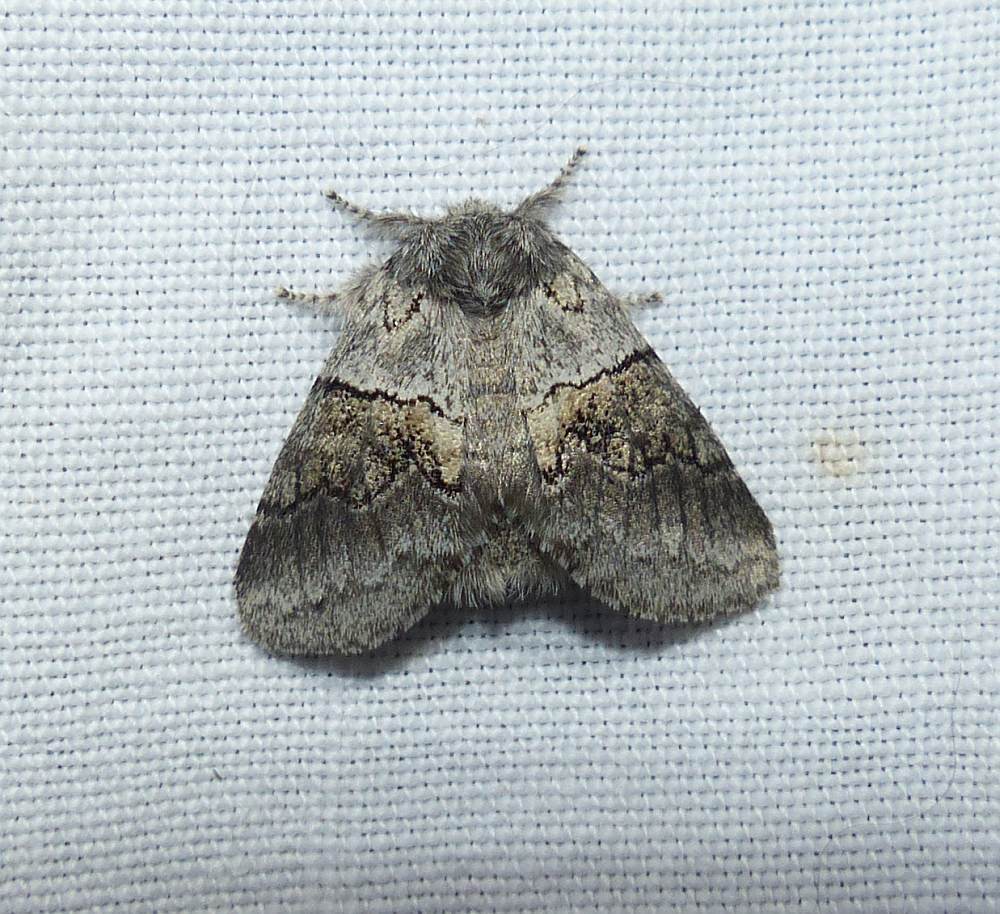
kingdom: Animalia
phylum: Arthropoda
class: Insecta
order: Lepidoptera
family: Notodontidae
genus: Gluphisia
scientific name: Gluphisia septentrionis
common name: Common gluphisia
